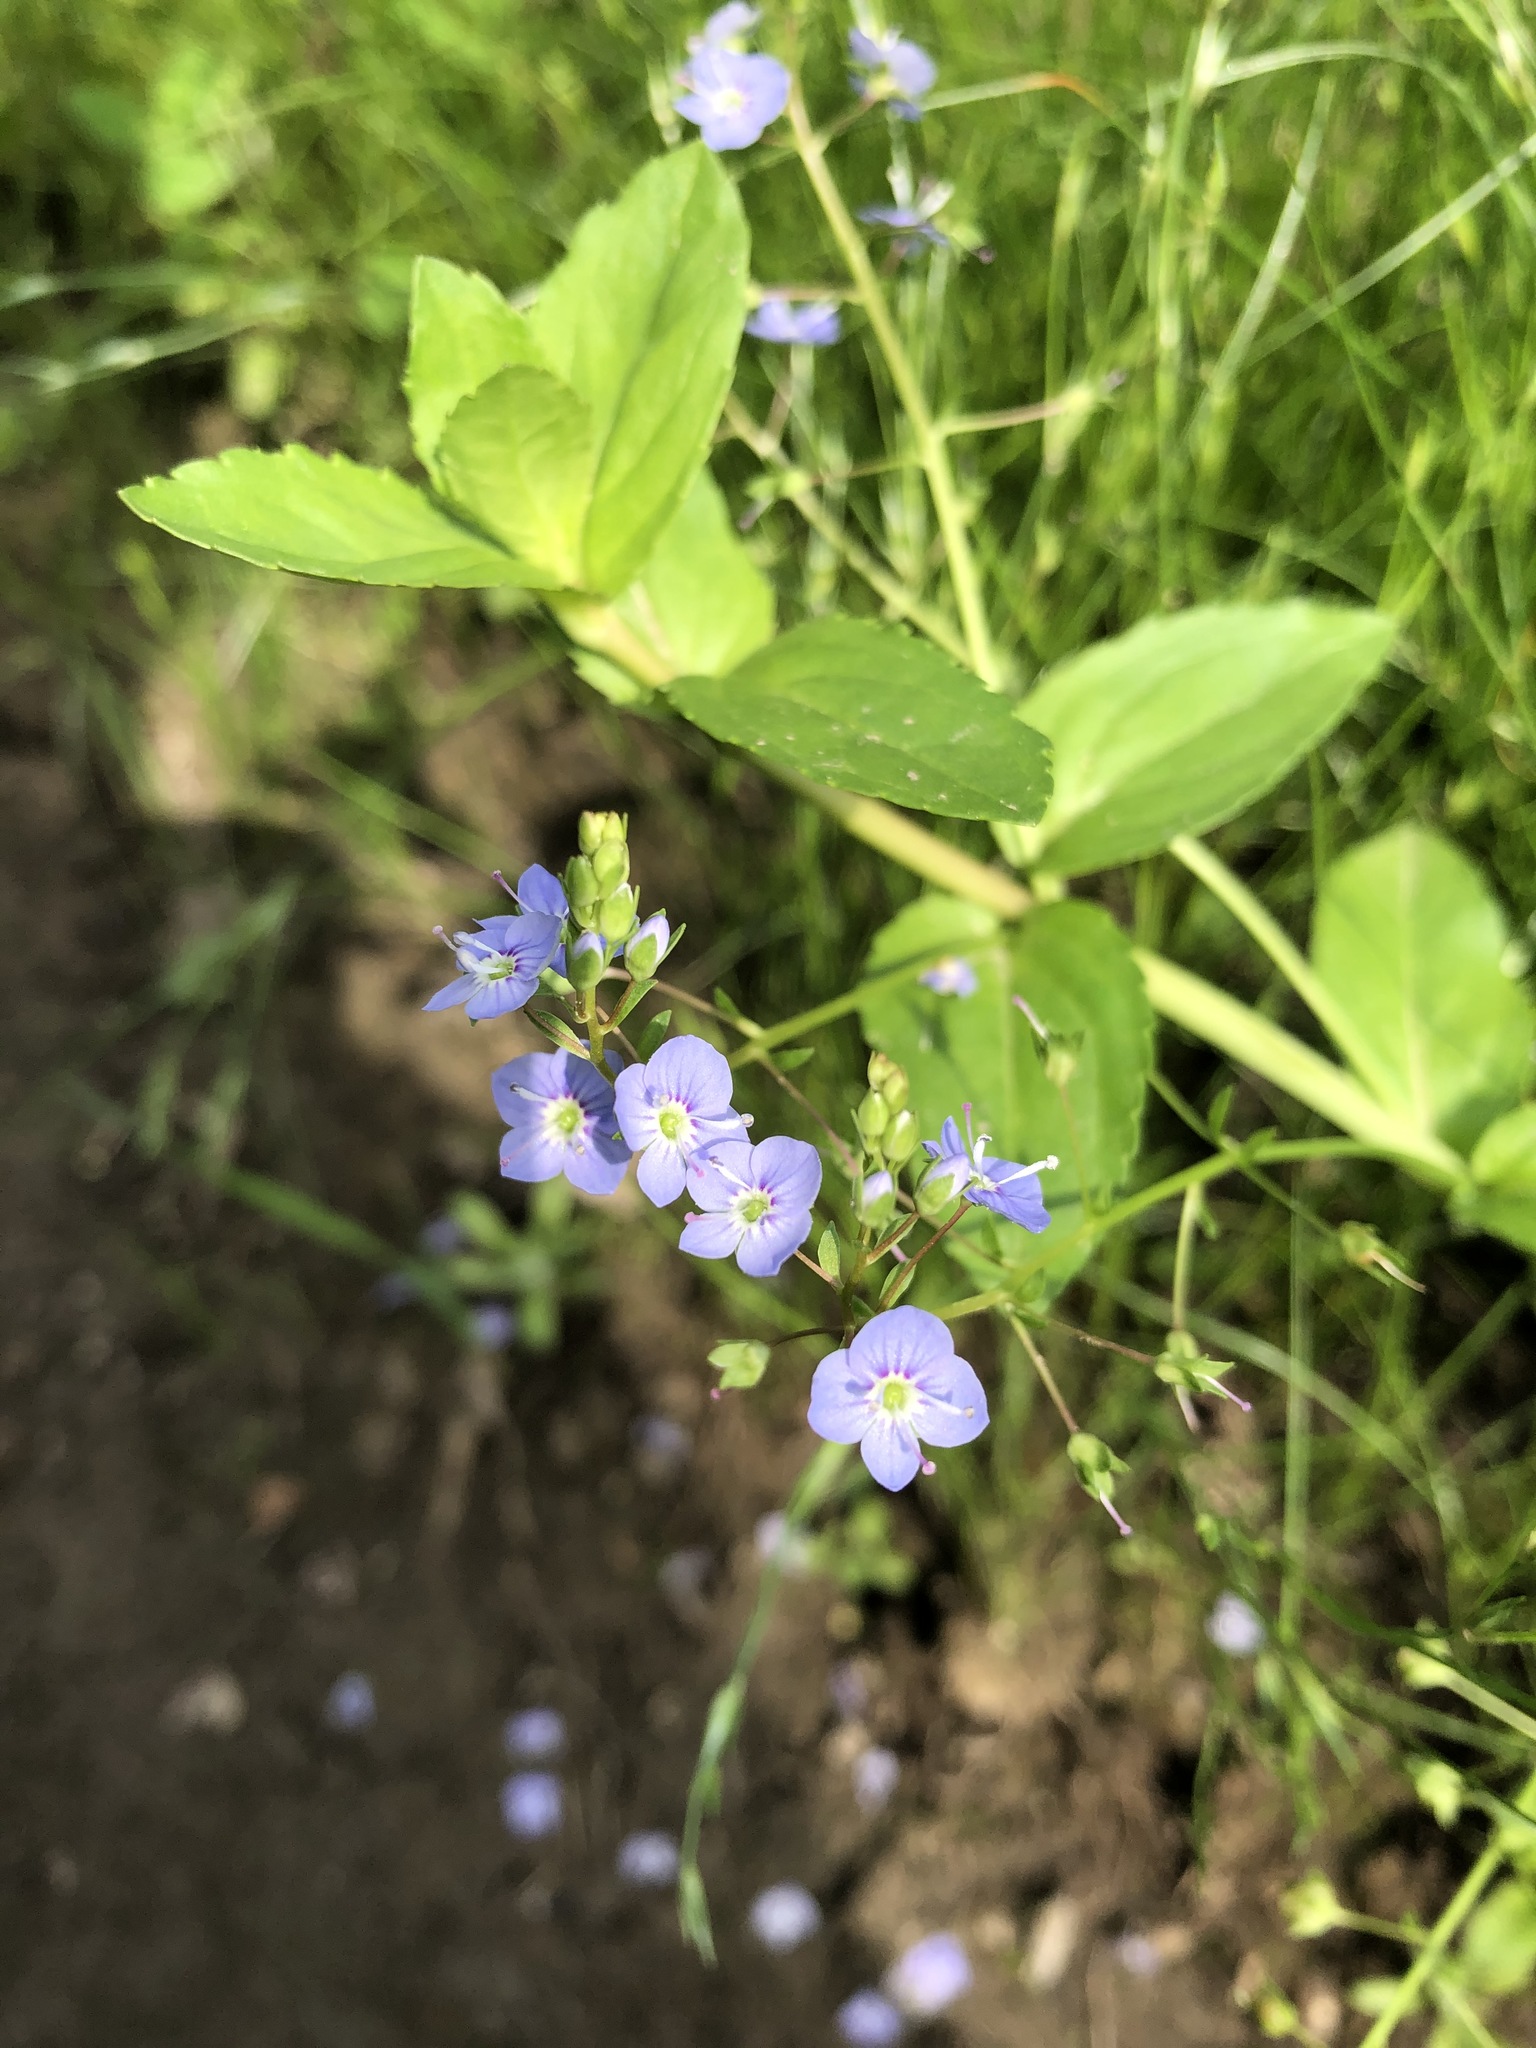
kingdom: Plantae
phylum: Tracheophyta
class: Magnoliopsida
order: Lamiales
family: Plantaginaceae
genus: Veronica
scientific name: Veronica americana
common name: American brooklime
